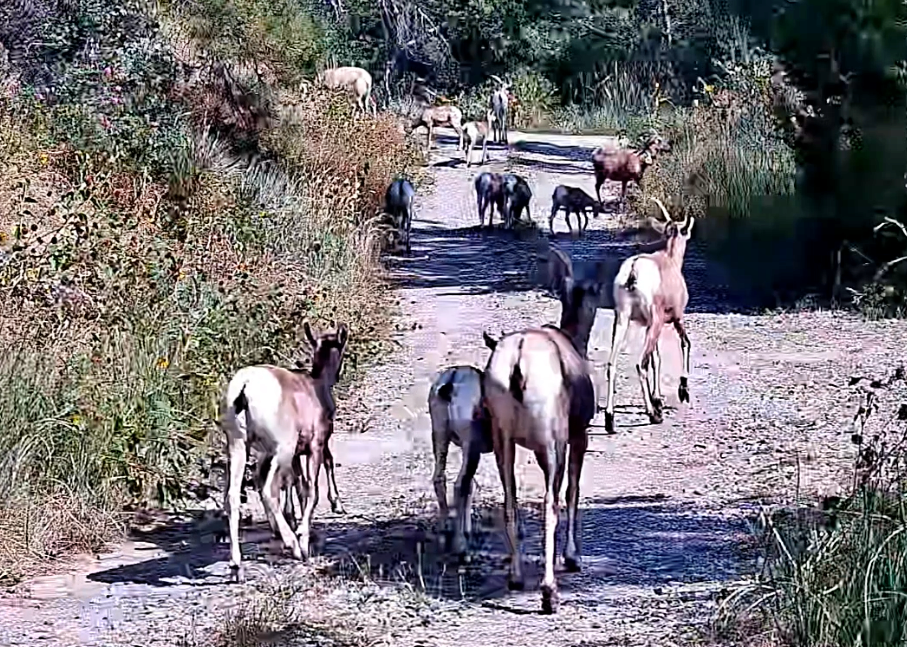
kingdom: Animalia
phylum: Chordata
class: Mammalia
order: Artiodactyla
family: Bovidae
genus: Ovis
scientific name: Ovis canadensis
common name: Bighorn sheep
